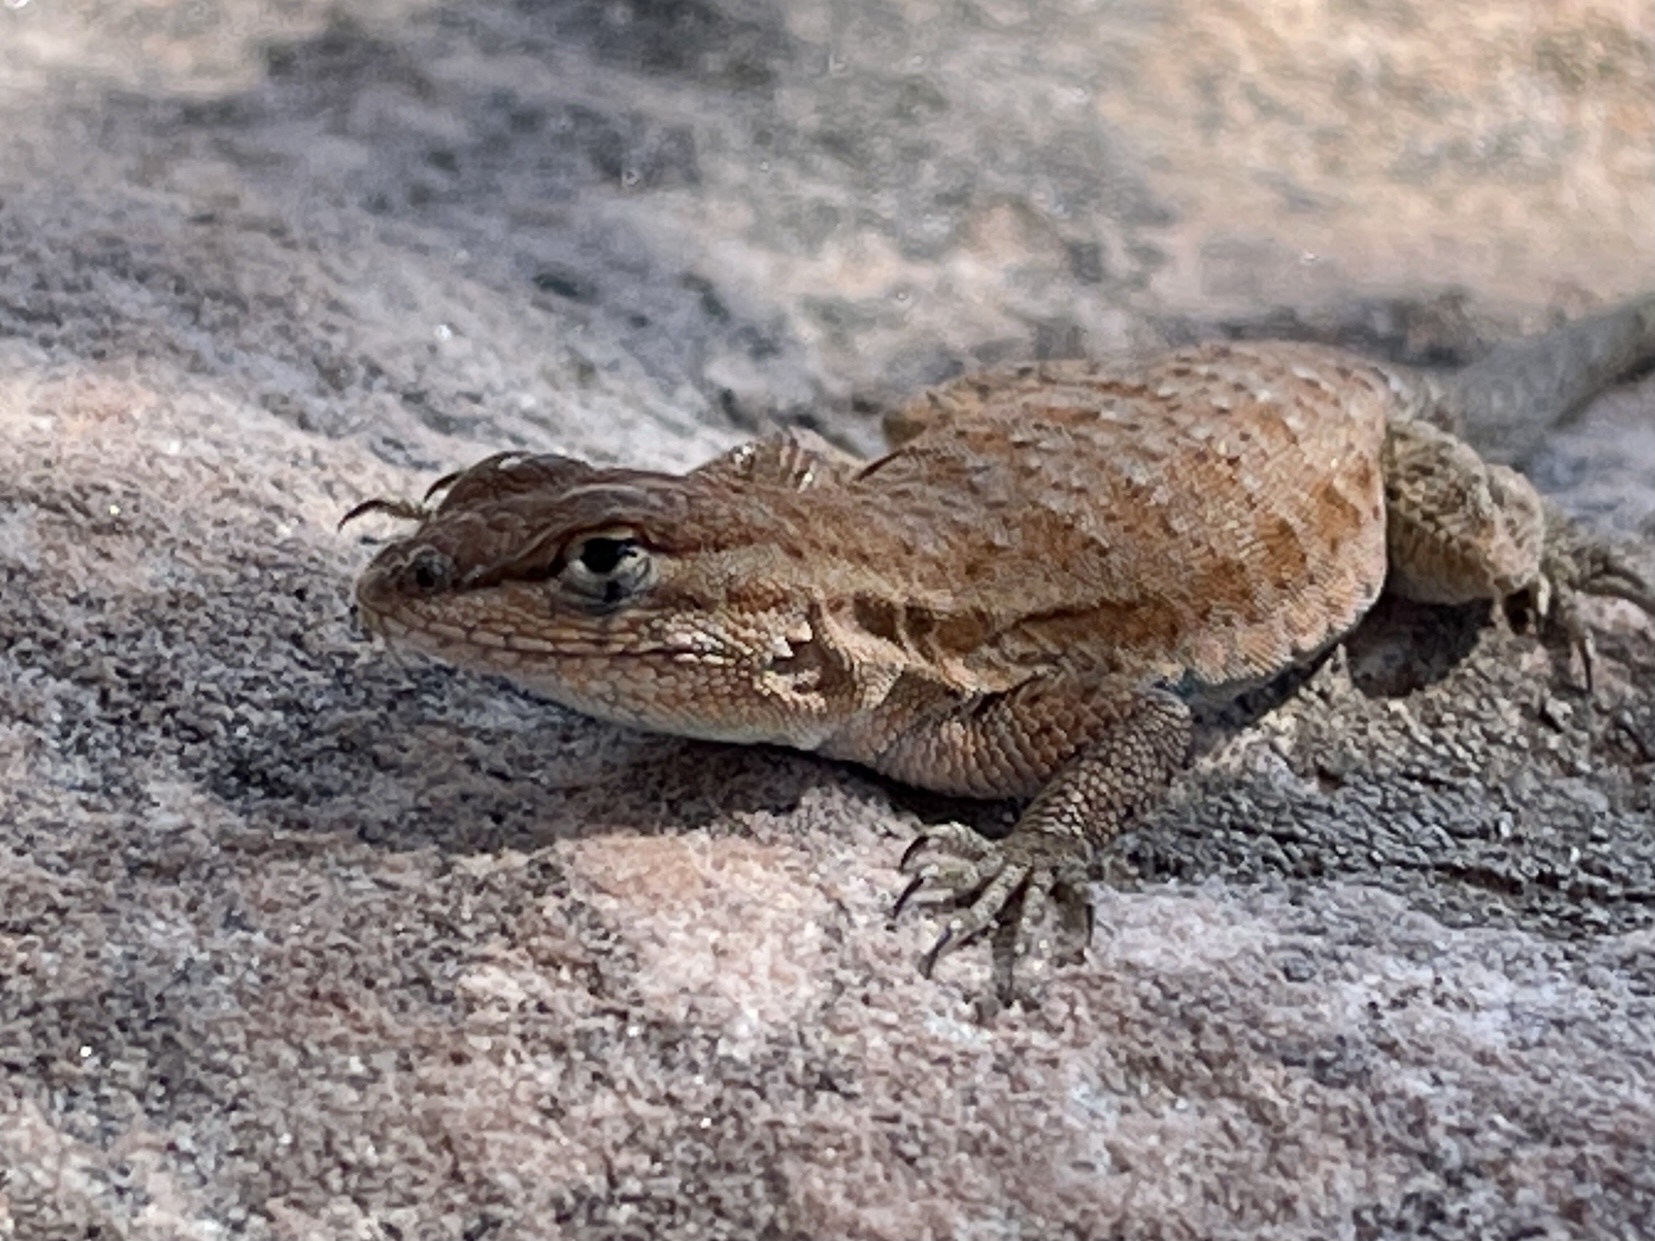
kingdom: Animalia
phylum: Chordata
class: Squamata
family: Phrynosomatidae
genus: Uta
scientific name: Uta stansburiana
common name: Side-blotched lizard
